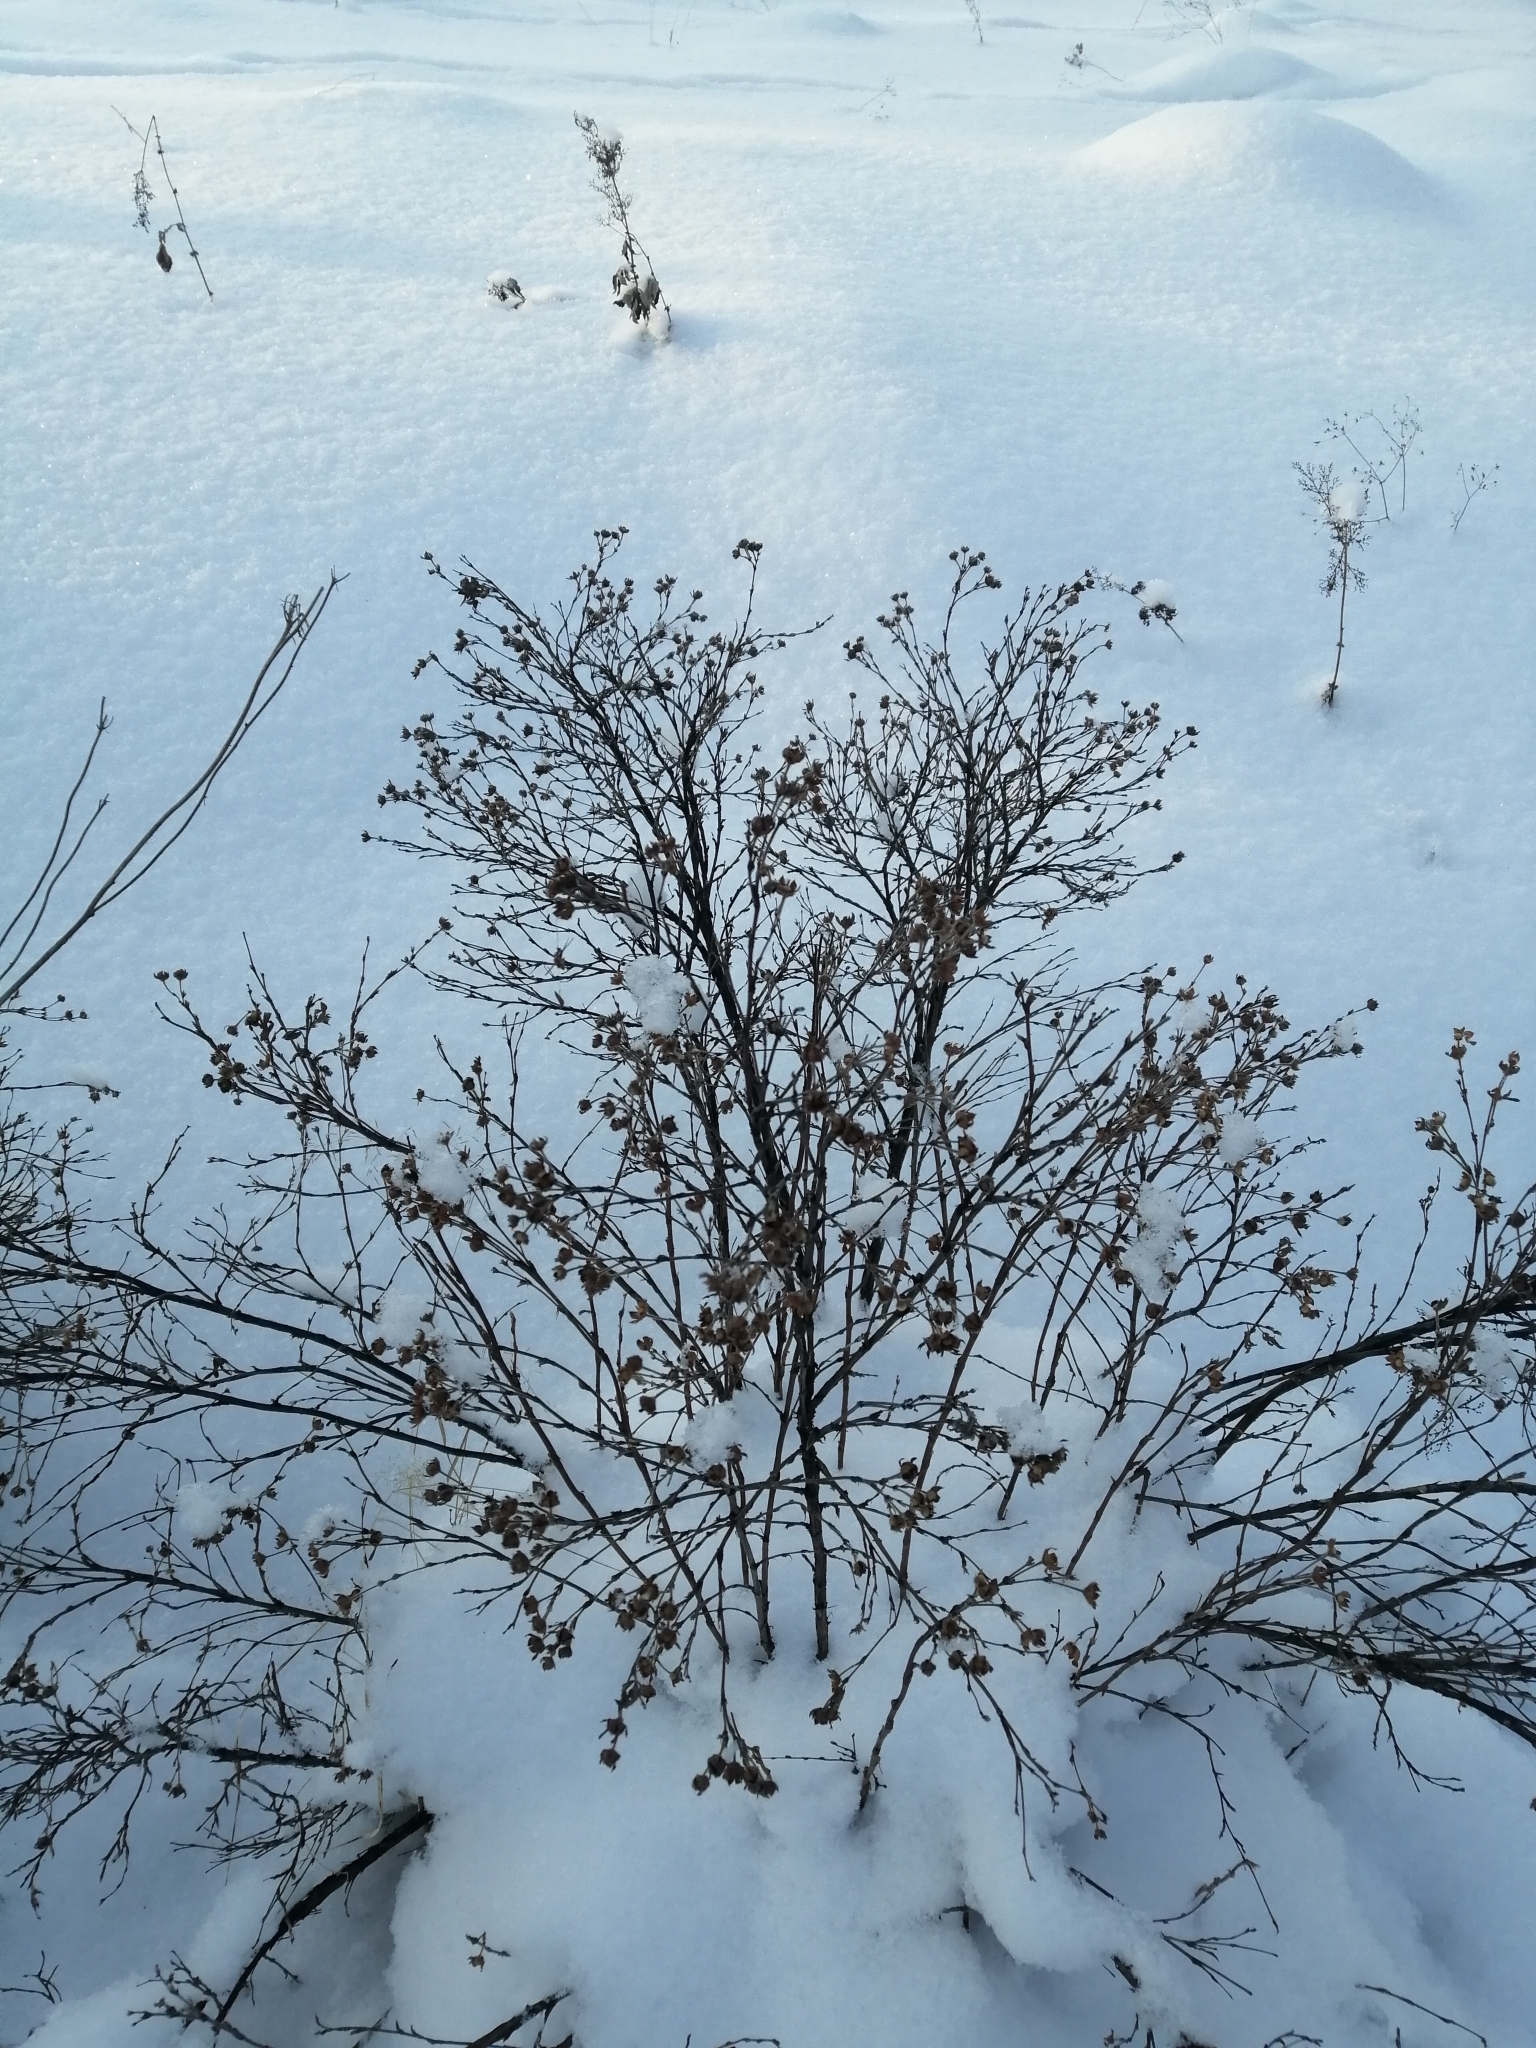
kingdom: Plantae
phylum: Tracheophyta
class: Magnoliopsida
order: Rosales
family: Rosaceae
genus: Dasiphora
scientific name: Dasiphora fruticosa
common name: Shrubby cinquefoil
